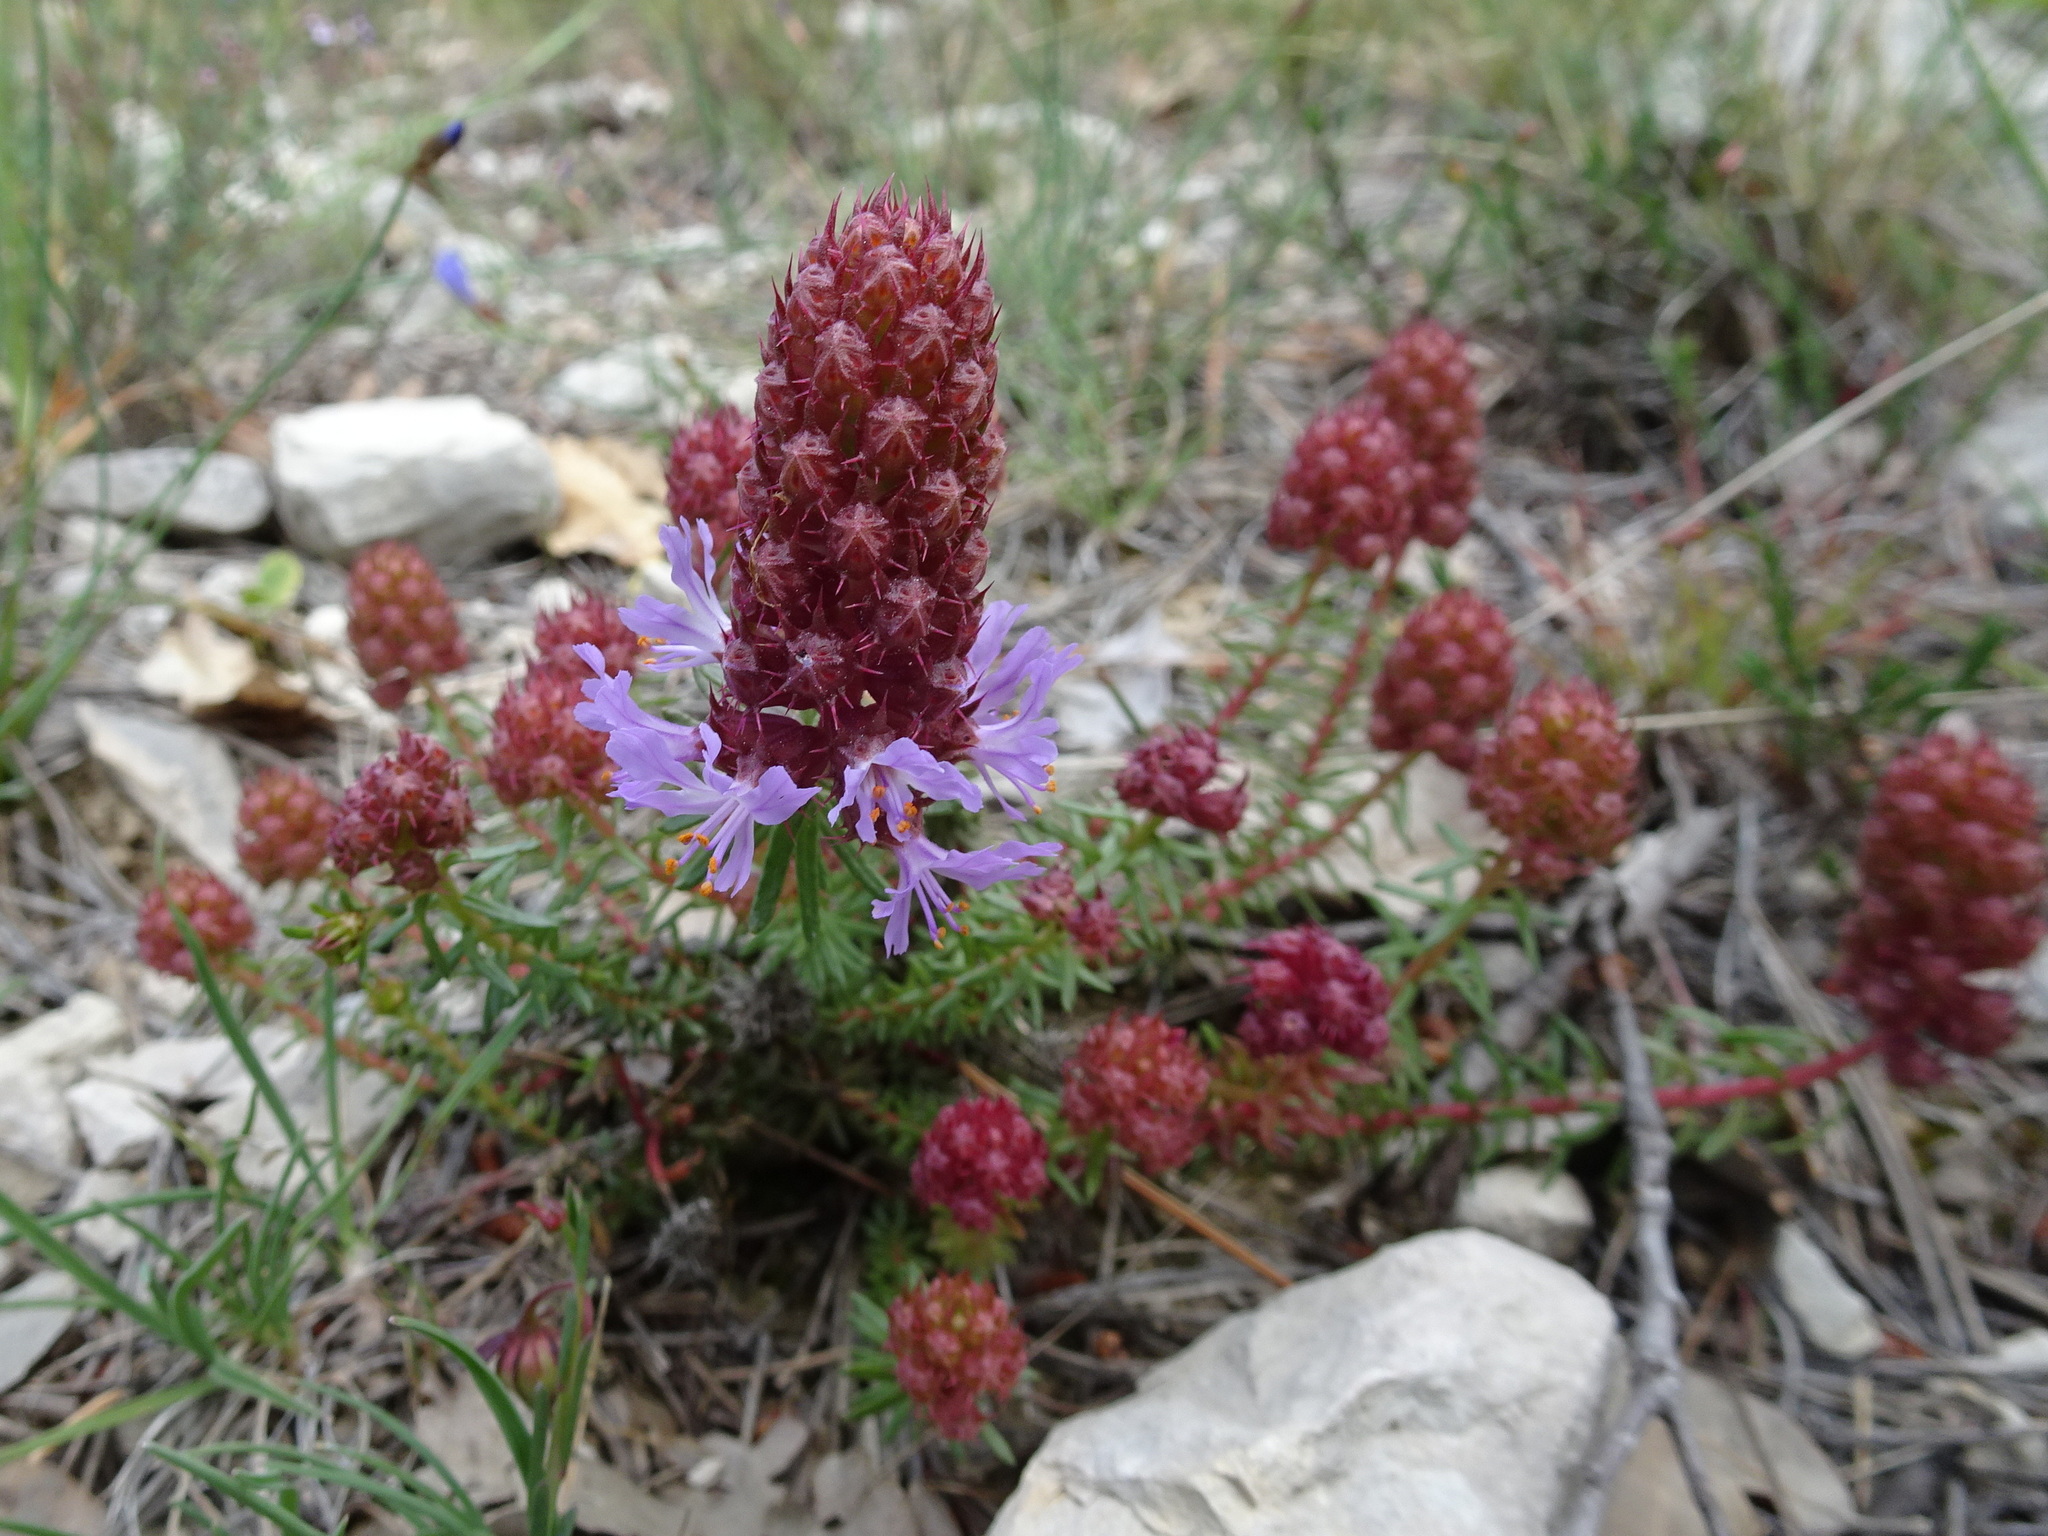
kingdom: Plantae
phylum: Tracheophyta
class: Magnoliopsida
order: Ericales
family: Primulaceae
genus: Coris
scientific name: Coris monspeliensis
